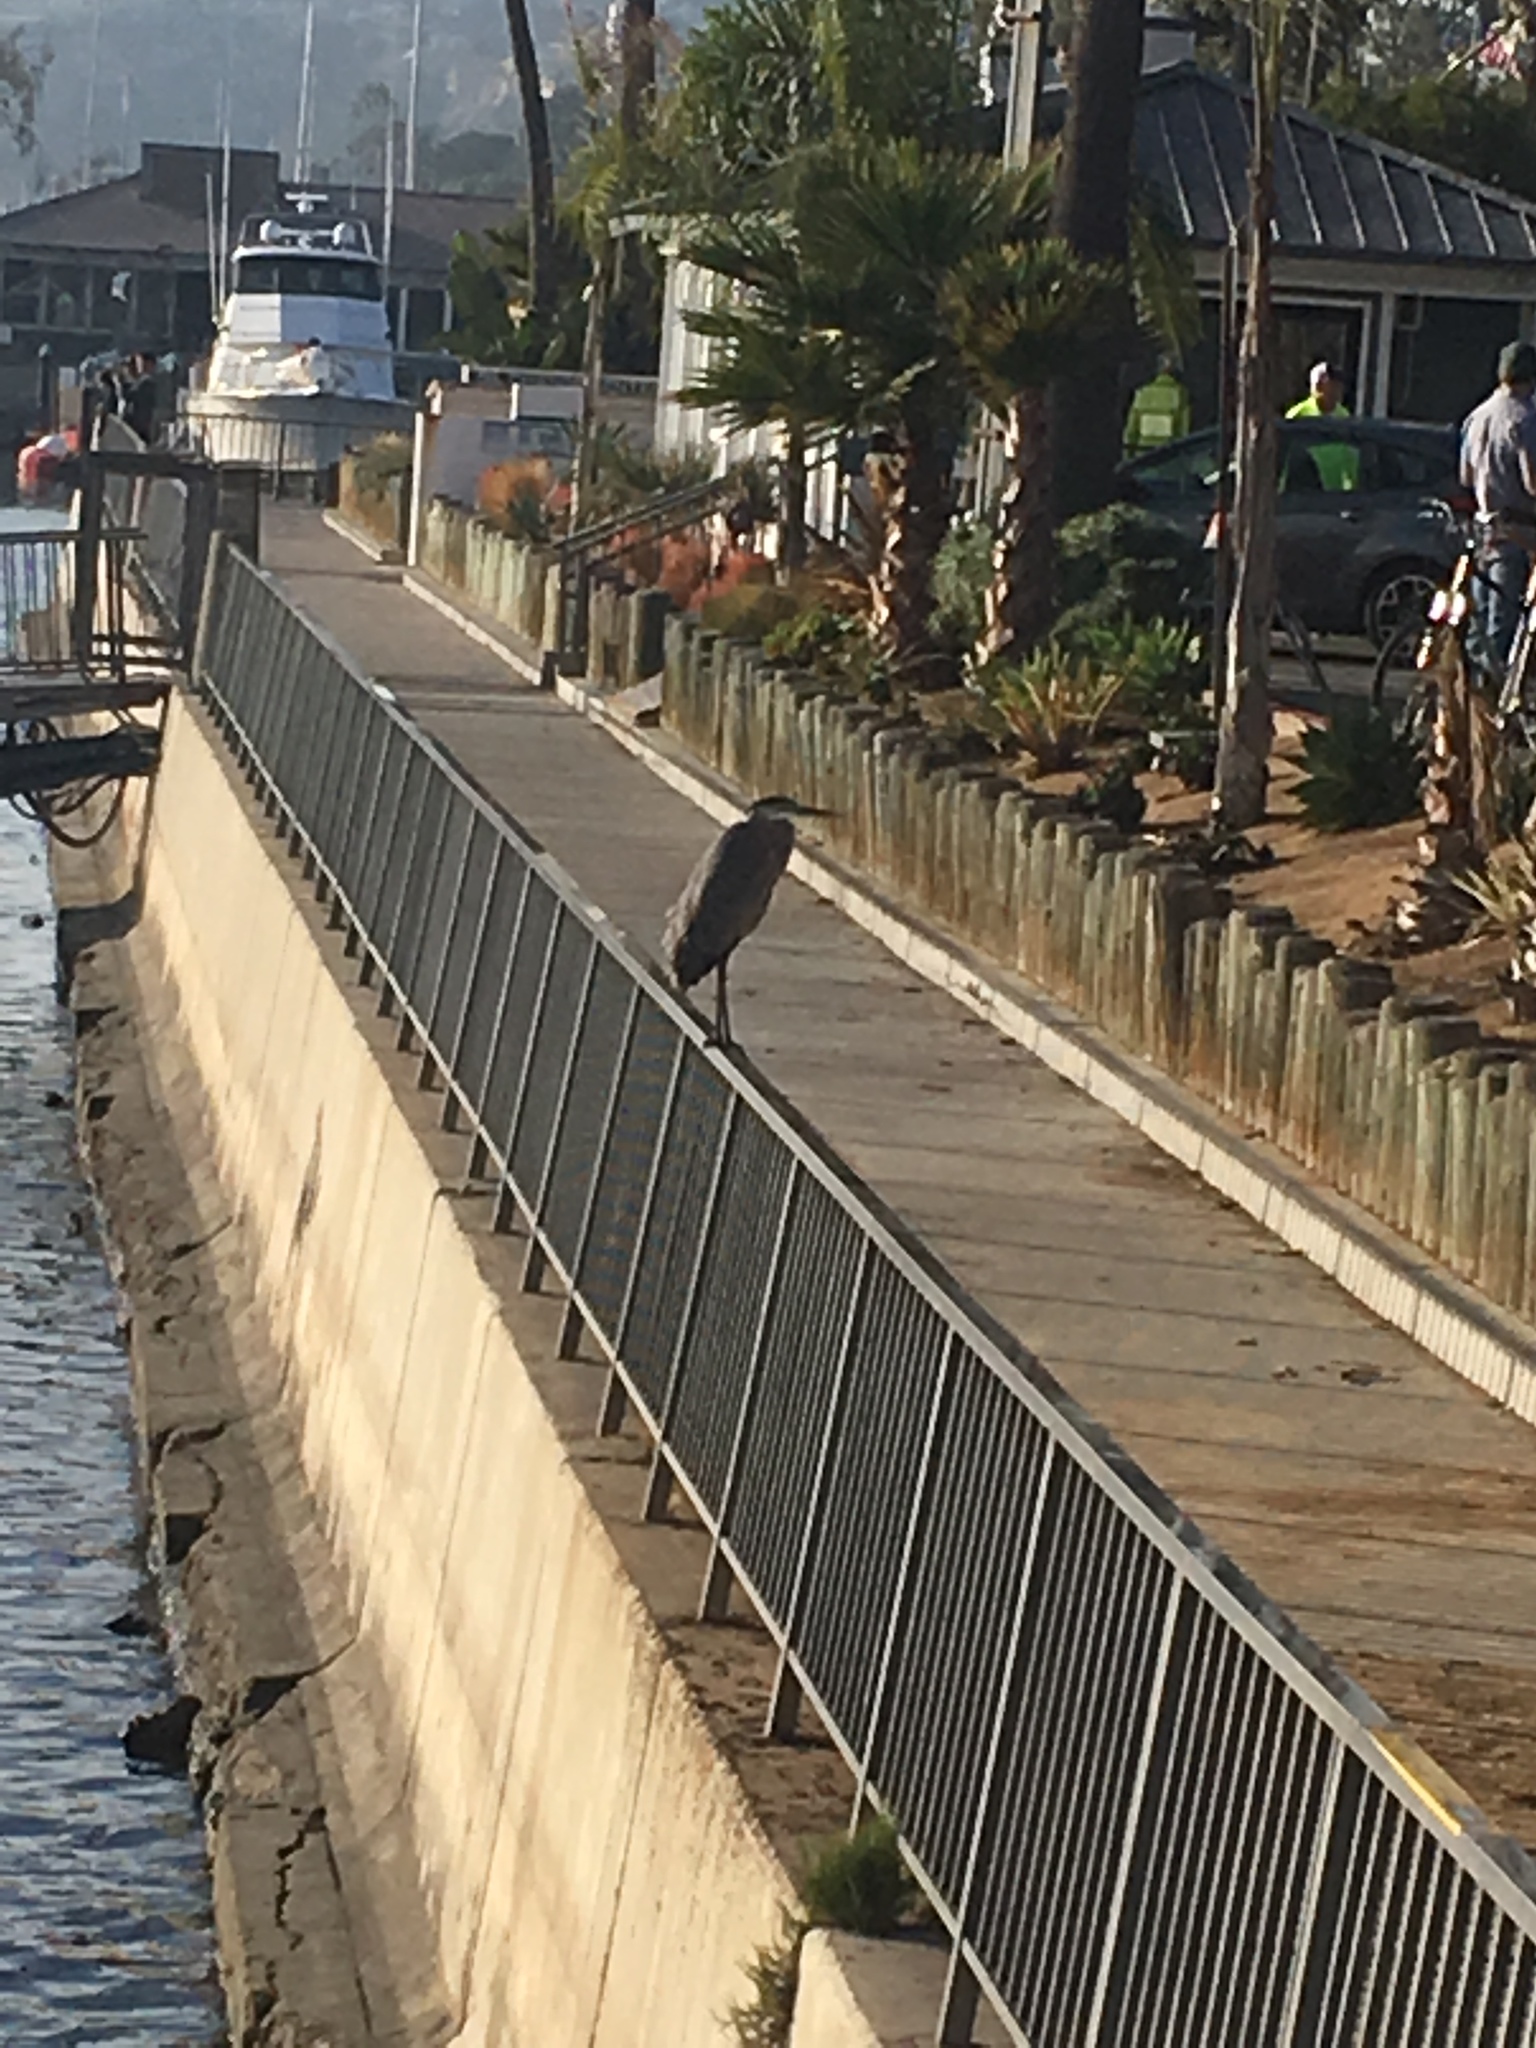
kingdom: Animalia
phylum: Chordata
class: Aves
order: Pelecaniformes
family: Ardeidae
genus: Ardea
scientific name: Ardea herodias
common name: Great blue heron
